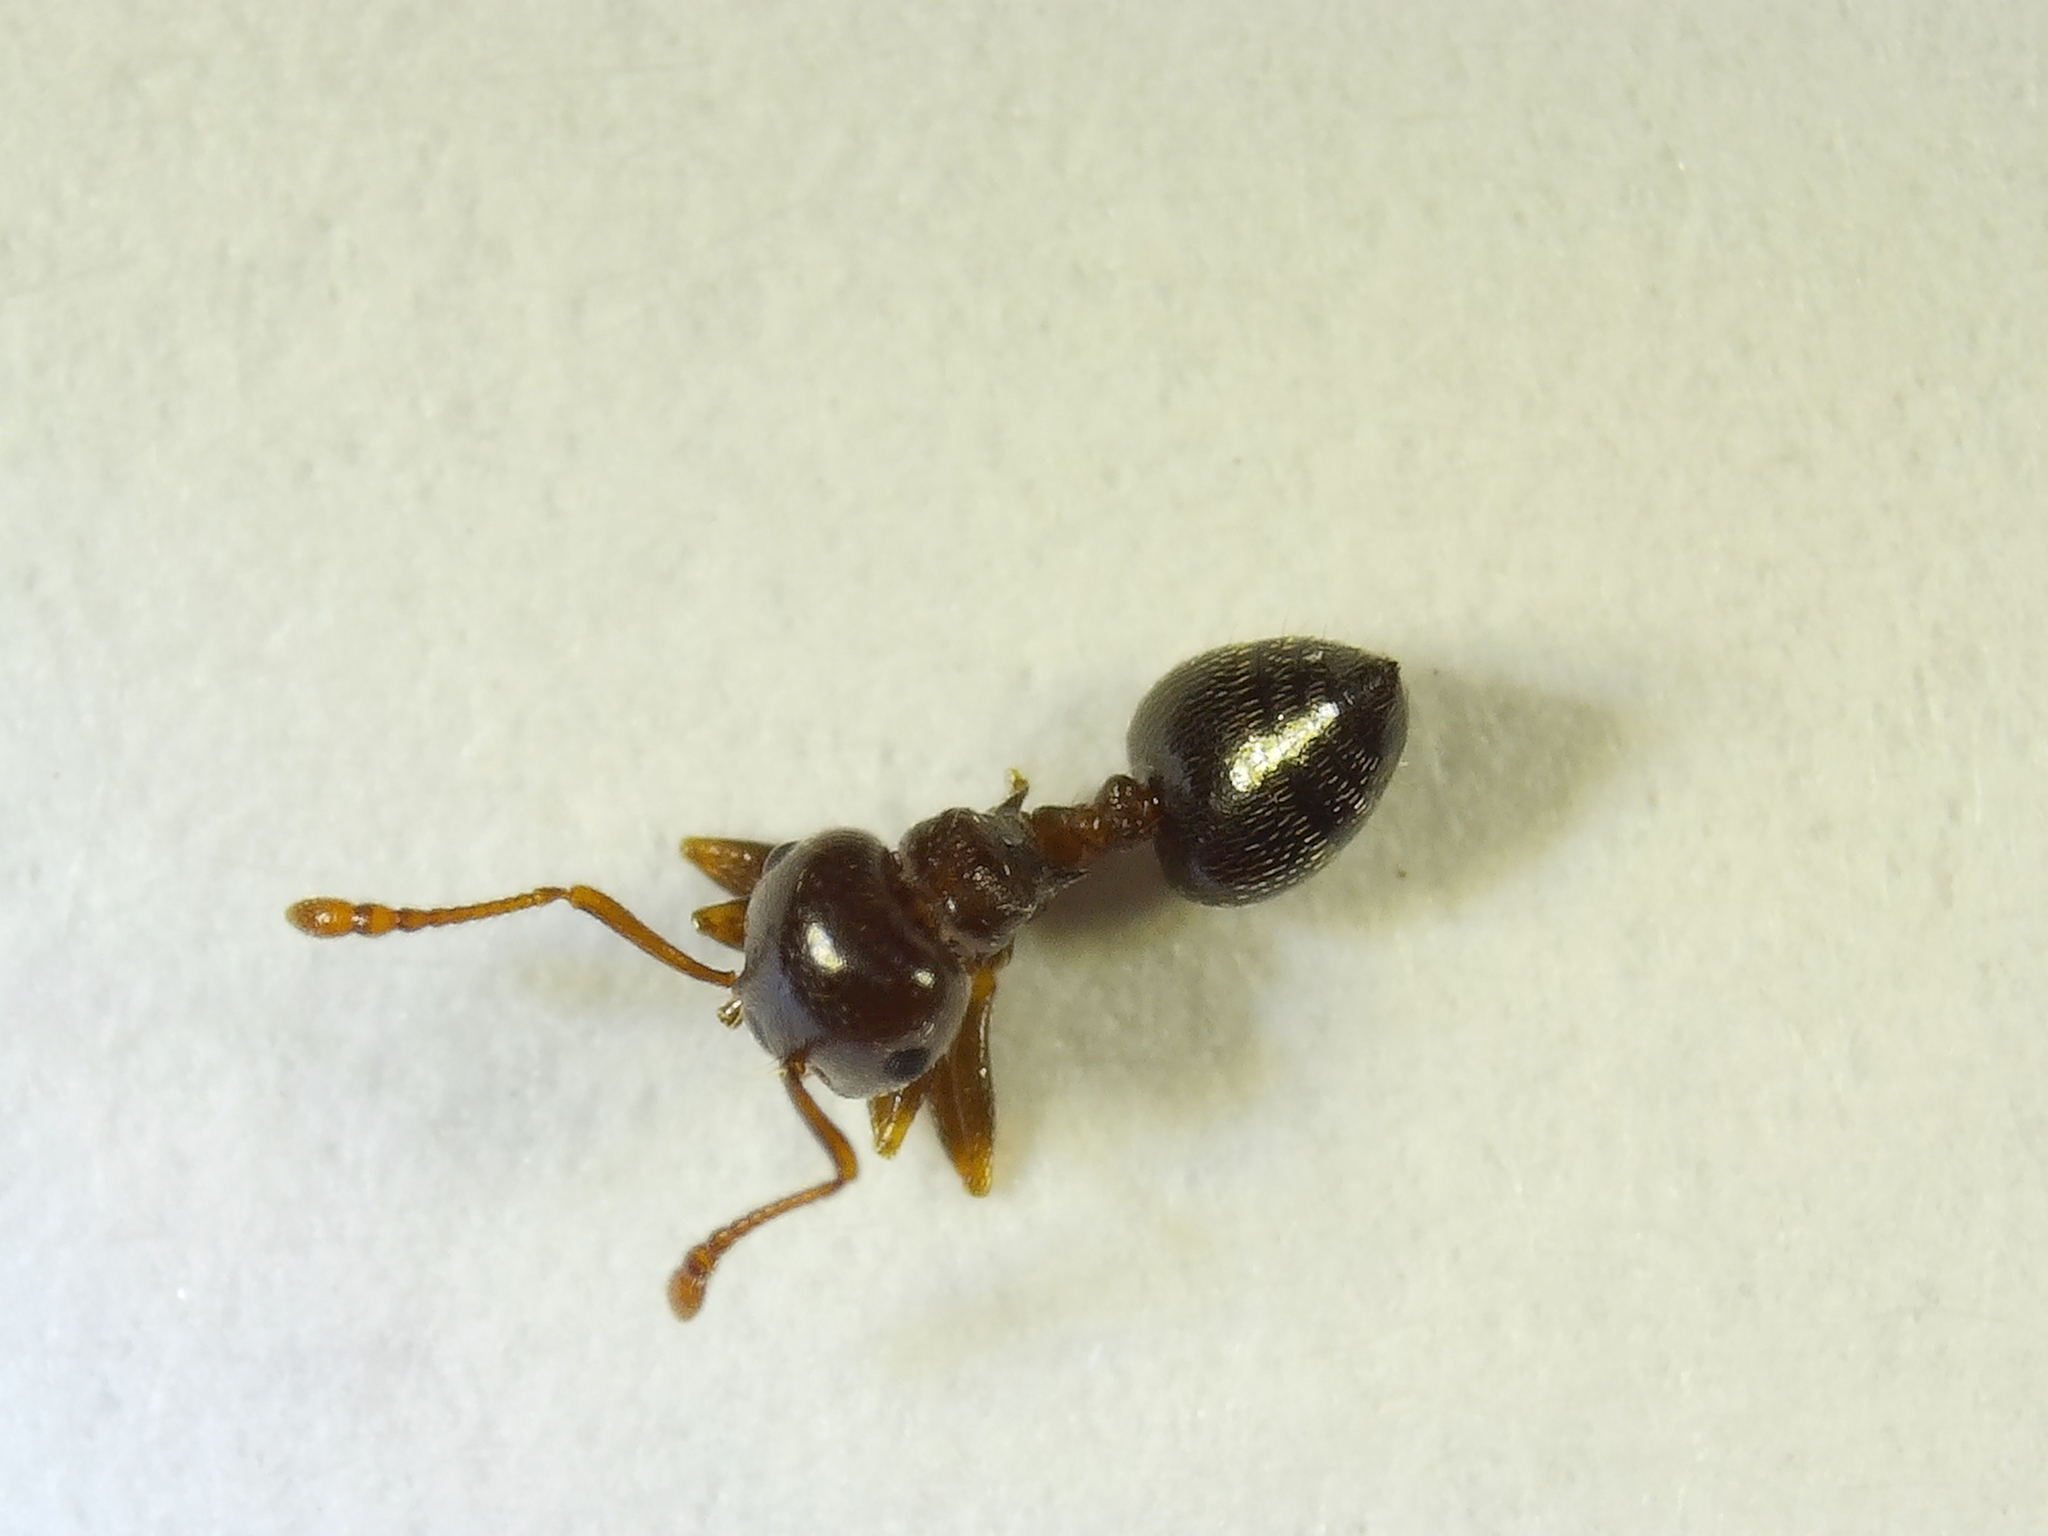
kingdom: Animalia
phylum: Arthropoda
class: Insecta
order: Hymenoptera
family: Formicidae
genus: Crematogaster
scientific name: Crematogaster ashmeadi
